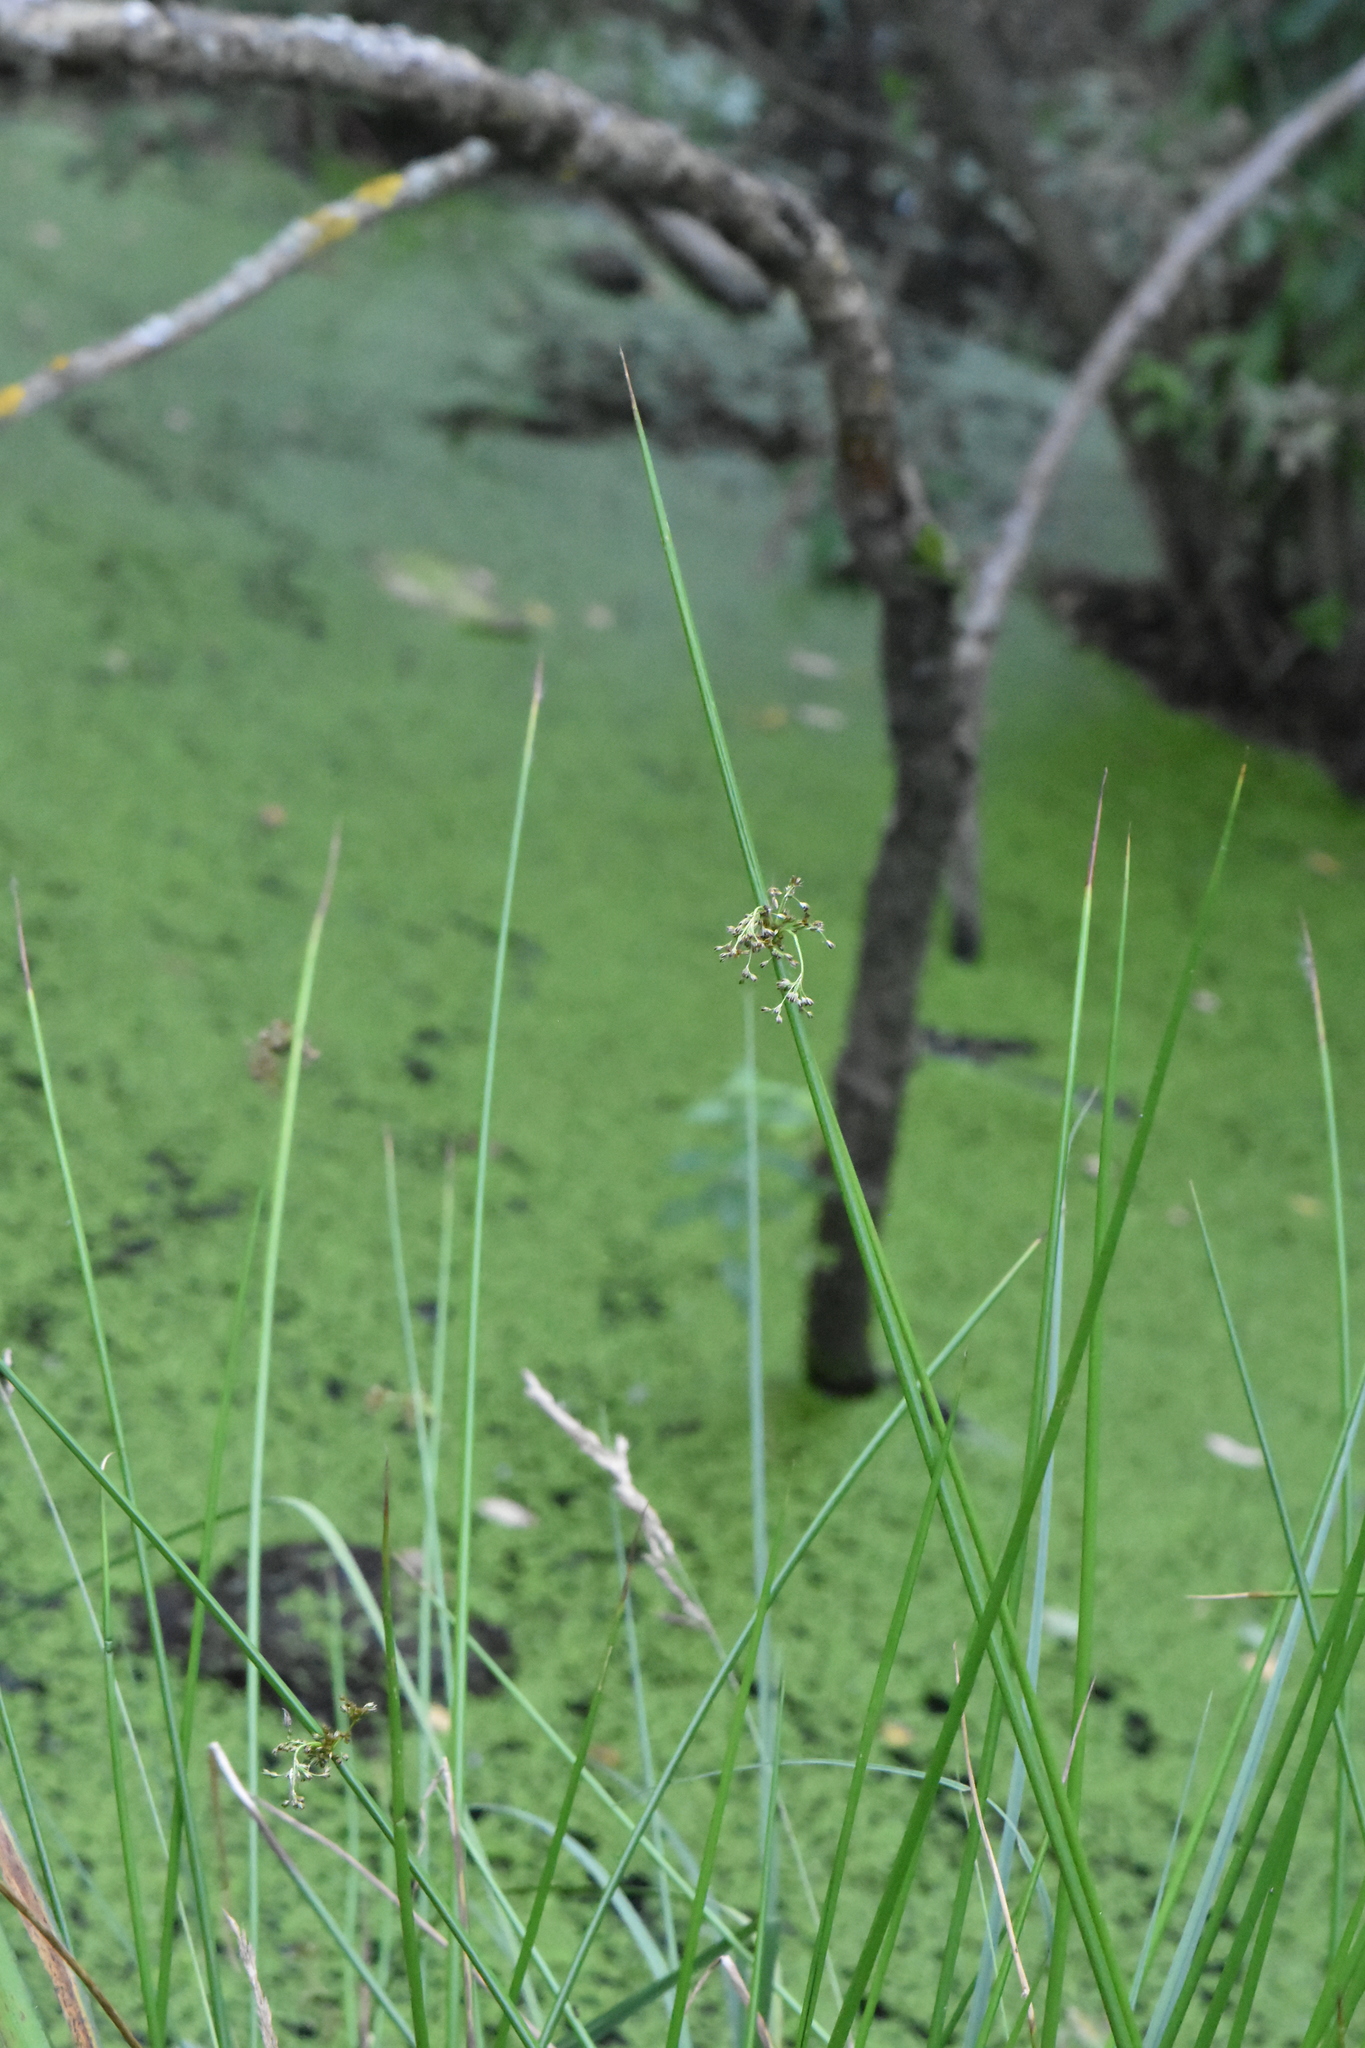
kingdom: Plantae
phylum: Tracheophyta
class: Liliopsida
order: Poales
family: Juncaceae
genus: Juncus
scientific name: Juncus effusus
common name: Soft rush
